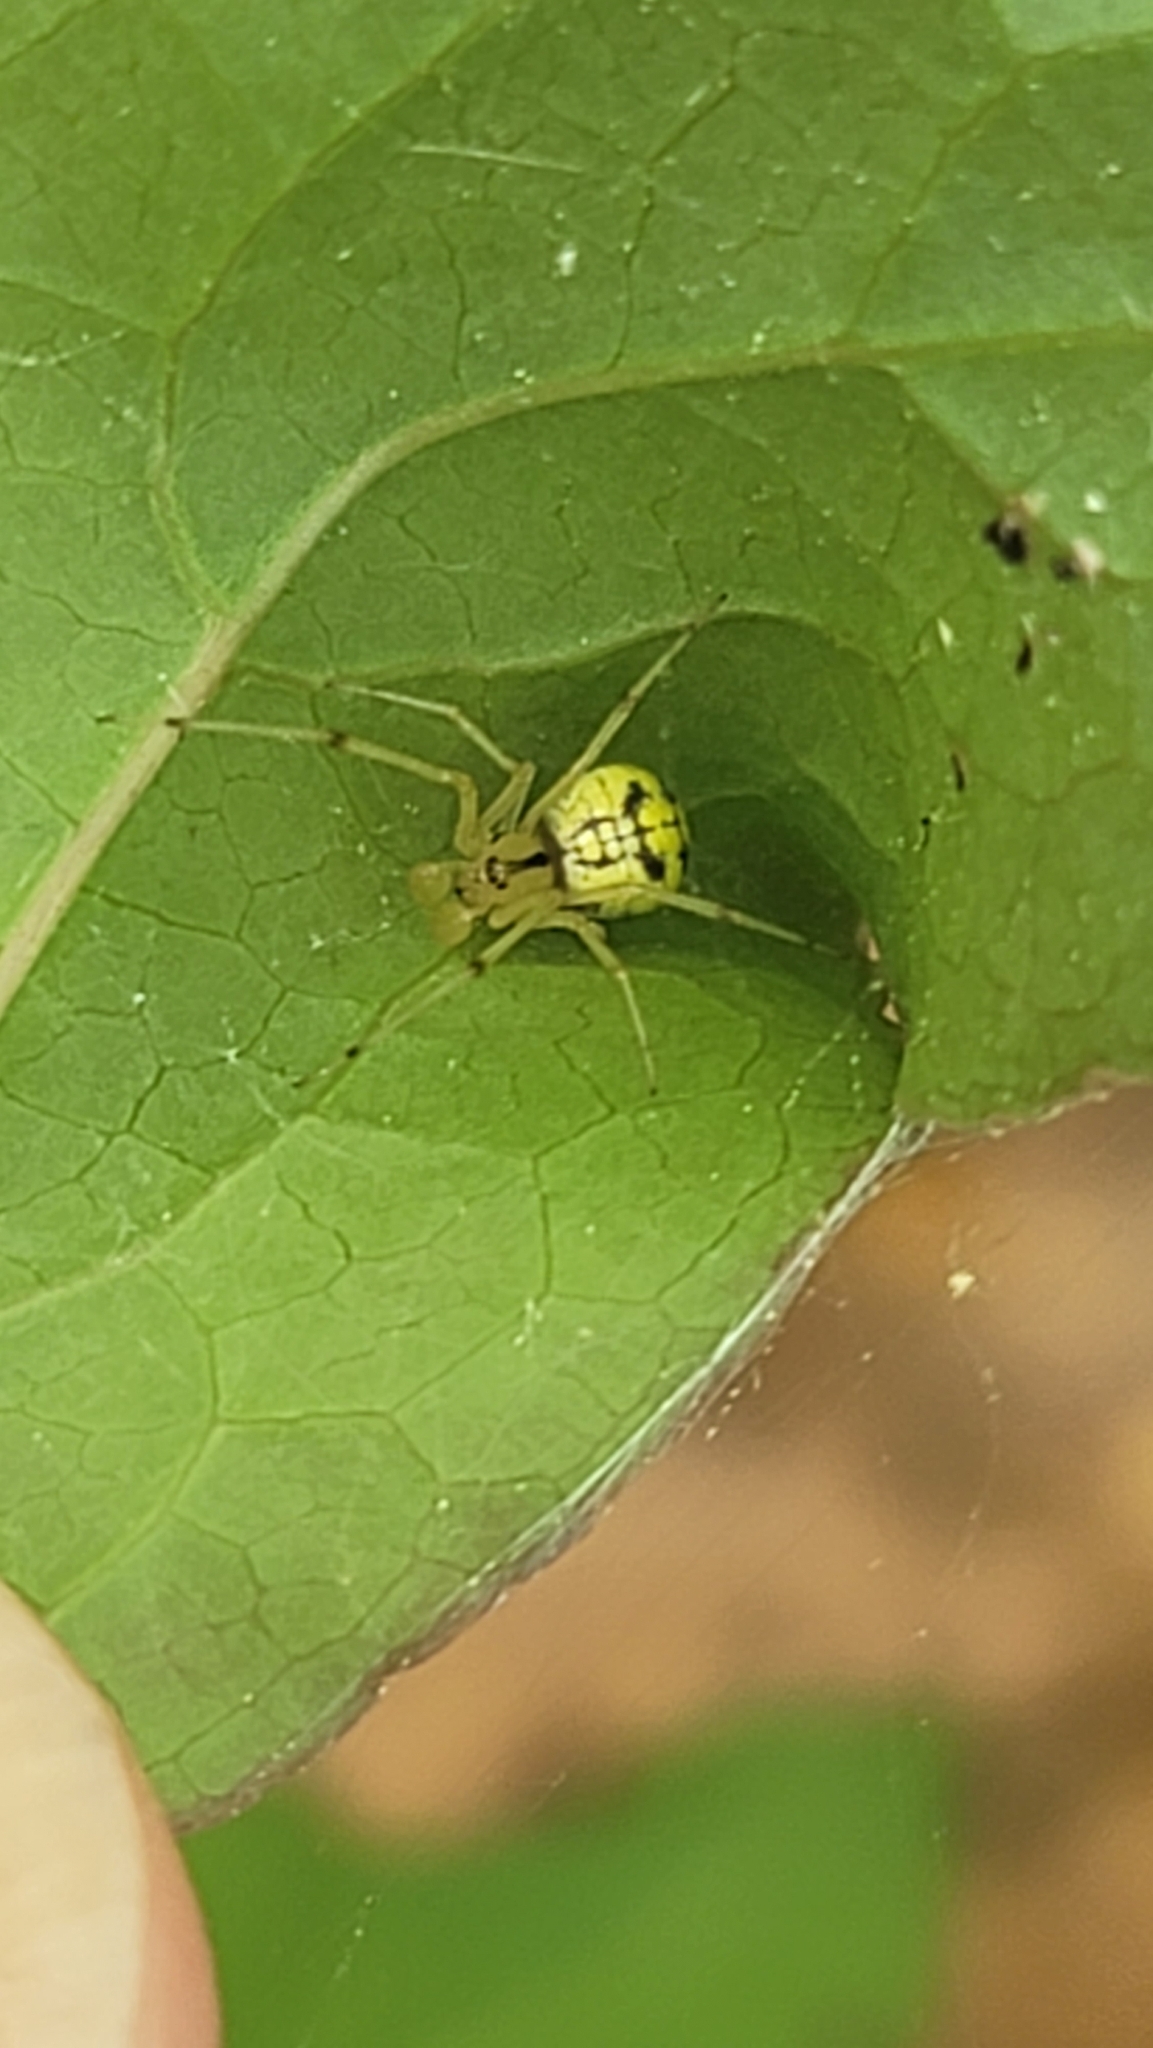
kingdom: Animalia
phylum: Arthropoda
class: Arachnida
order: Araneae
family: Theridiidae
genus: Phylloneta
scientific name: Phylloneta pictipes
